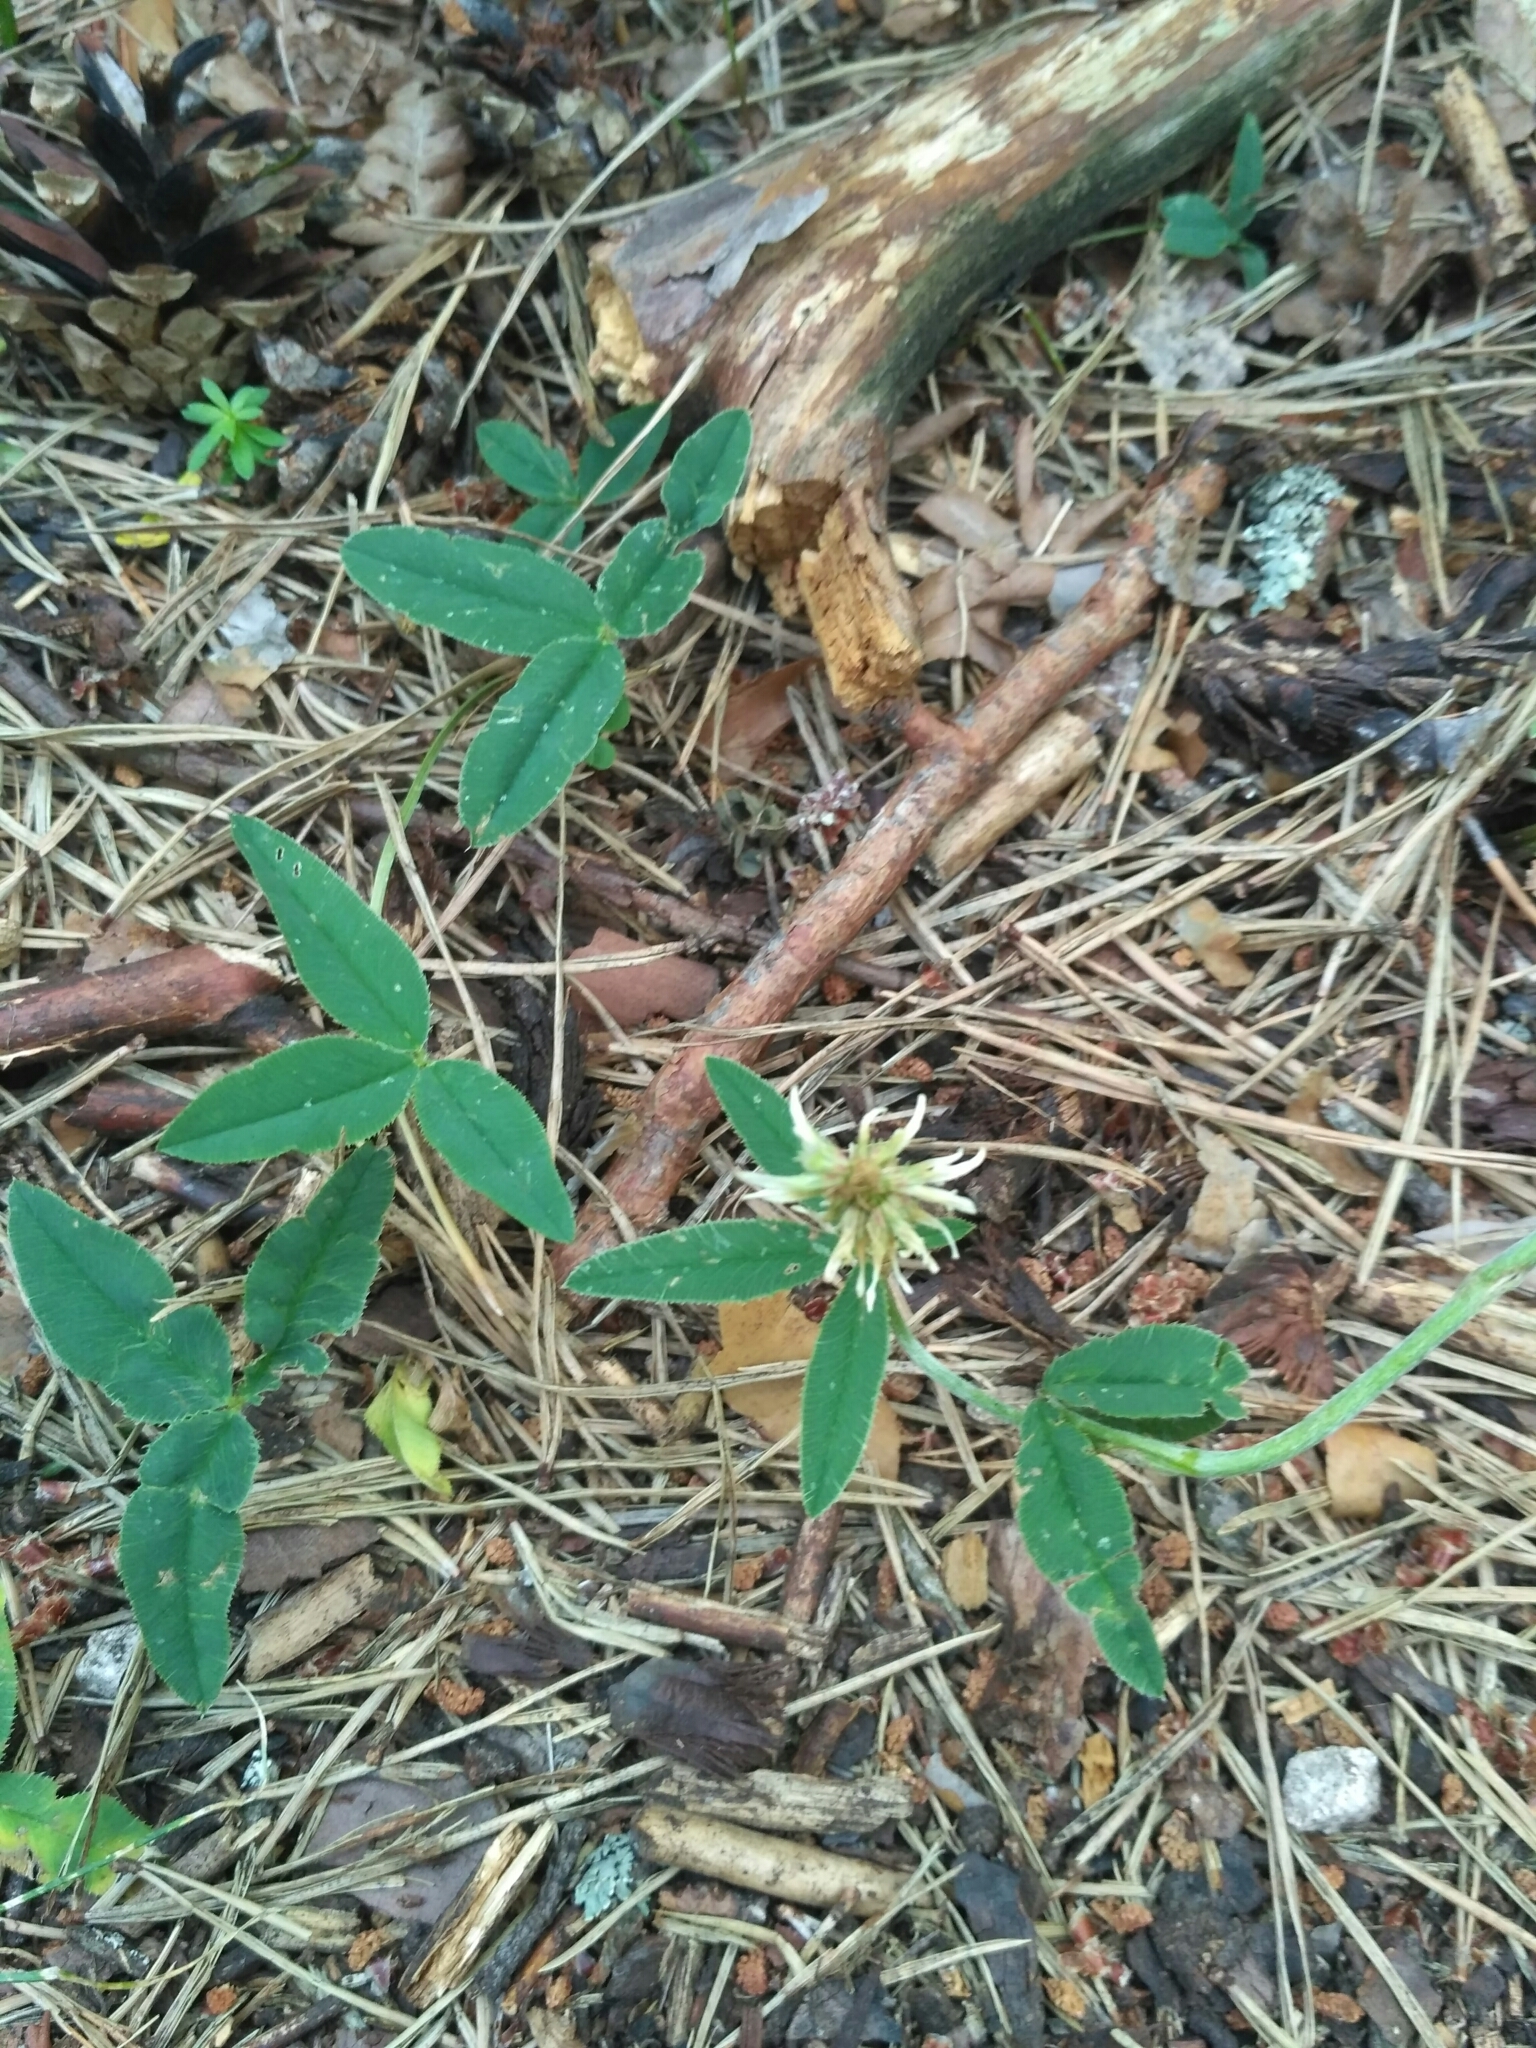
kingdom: Plantae
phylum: Tracheophyta
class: Magnoliopsida
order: Fabales
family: Fabaceae
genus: Trifolium
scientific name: Trifolium montanum
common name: Mountain clover
